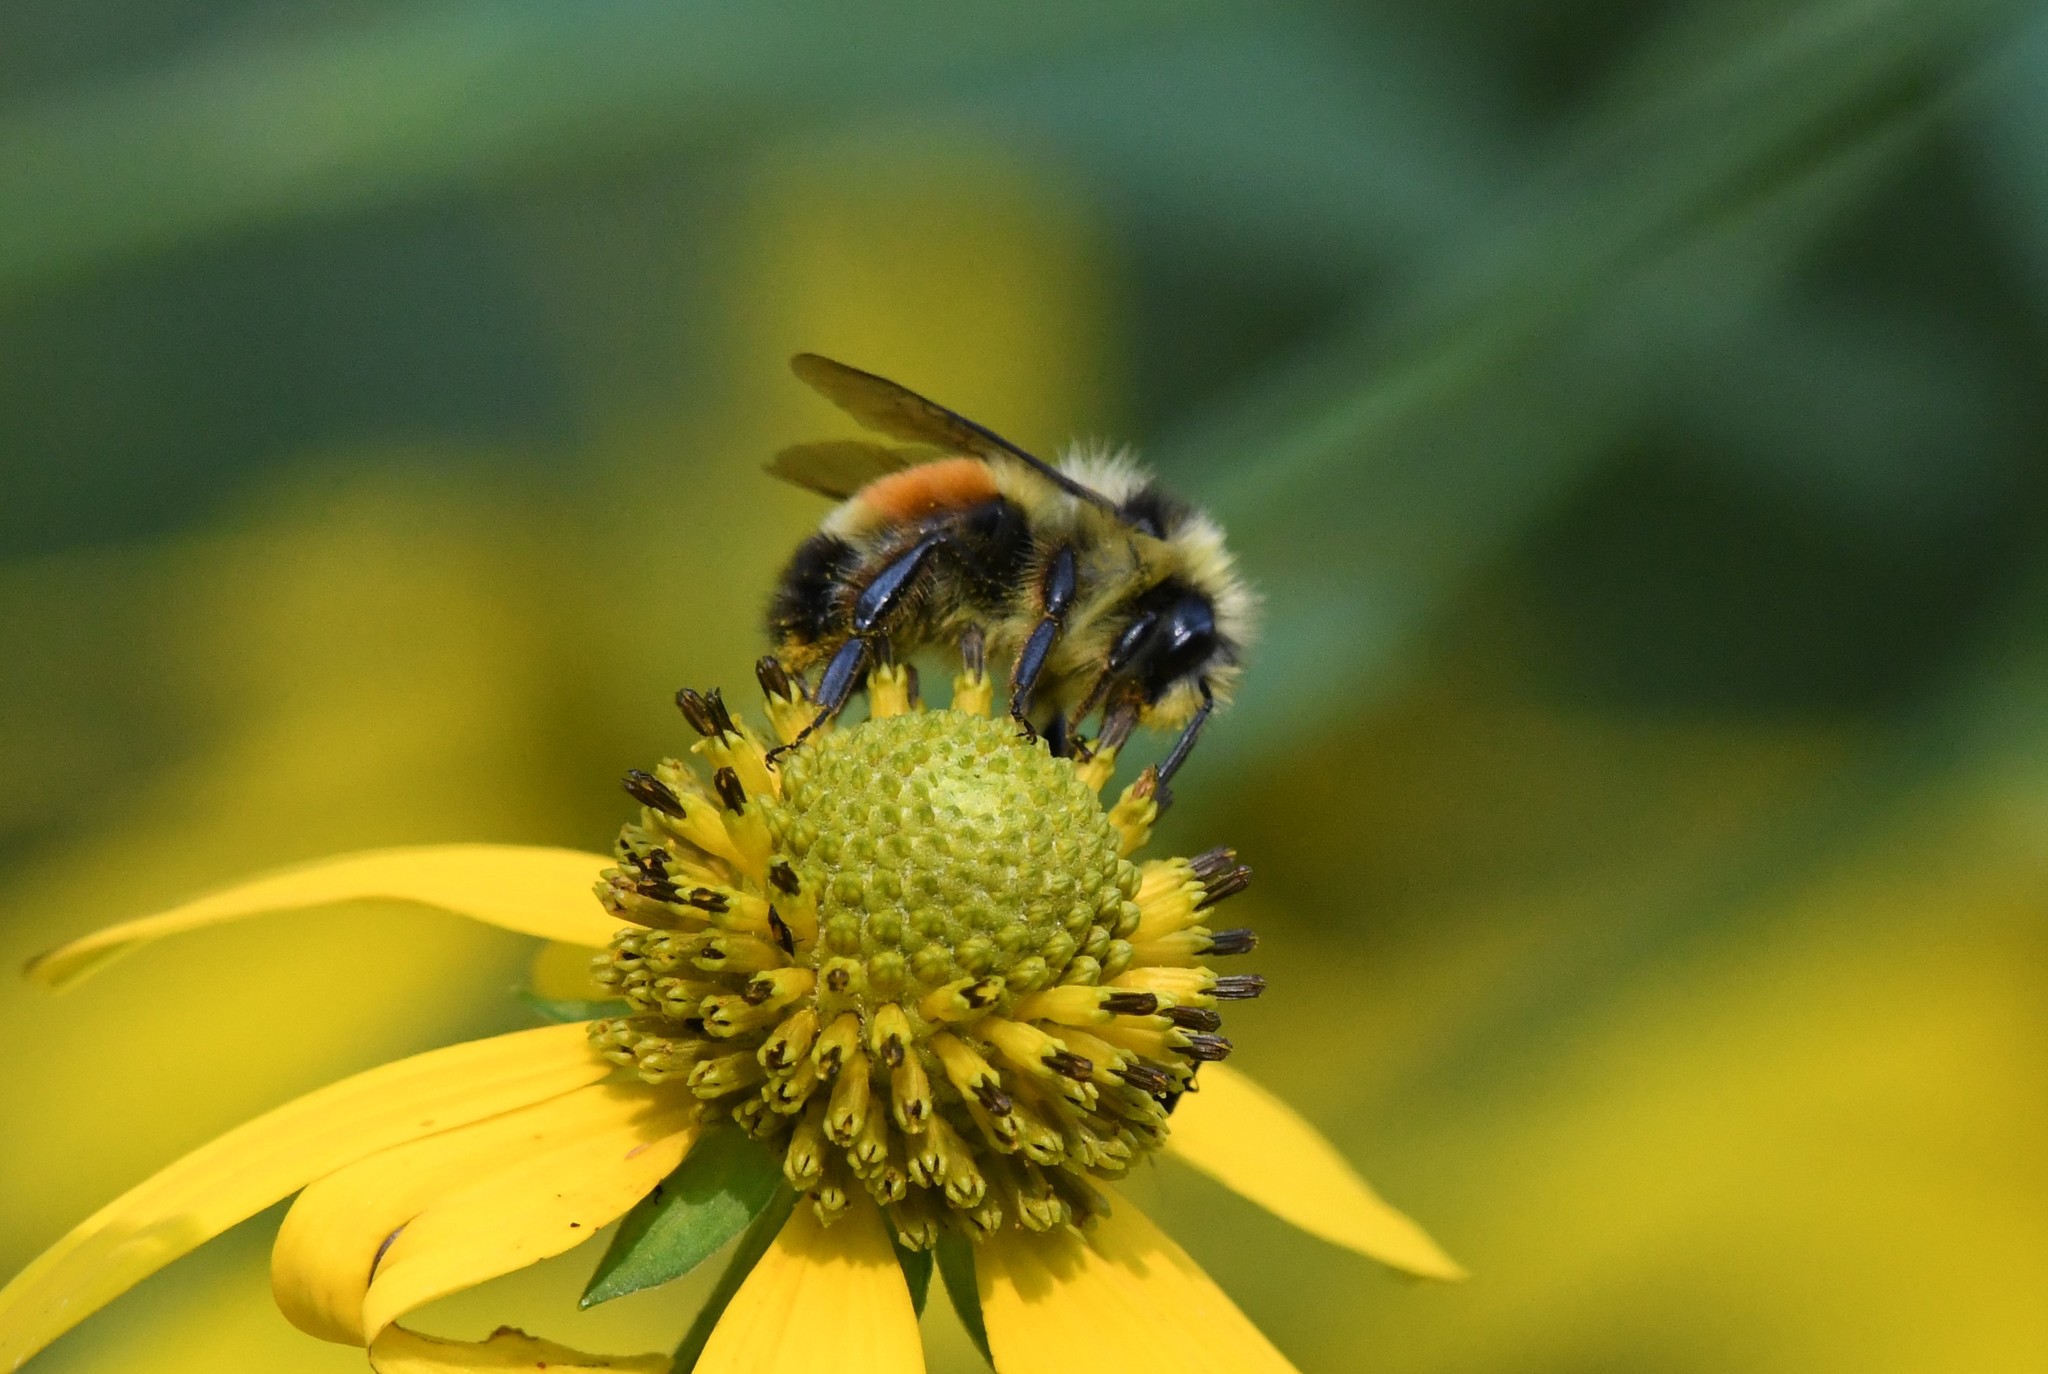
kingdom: Animalia
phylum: Arthropoda
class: Insecta
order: Hymenoptera
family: Apidae
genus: Bombus
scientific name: Bombus ternarius
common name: Tri-colored bumble bee
